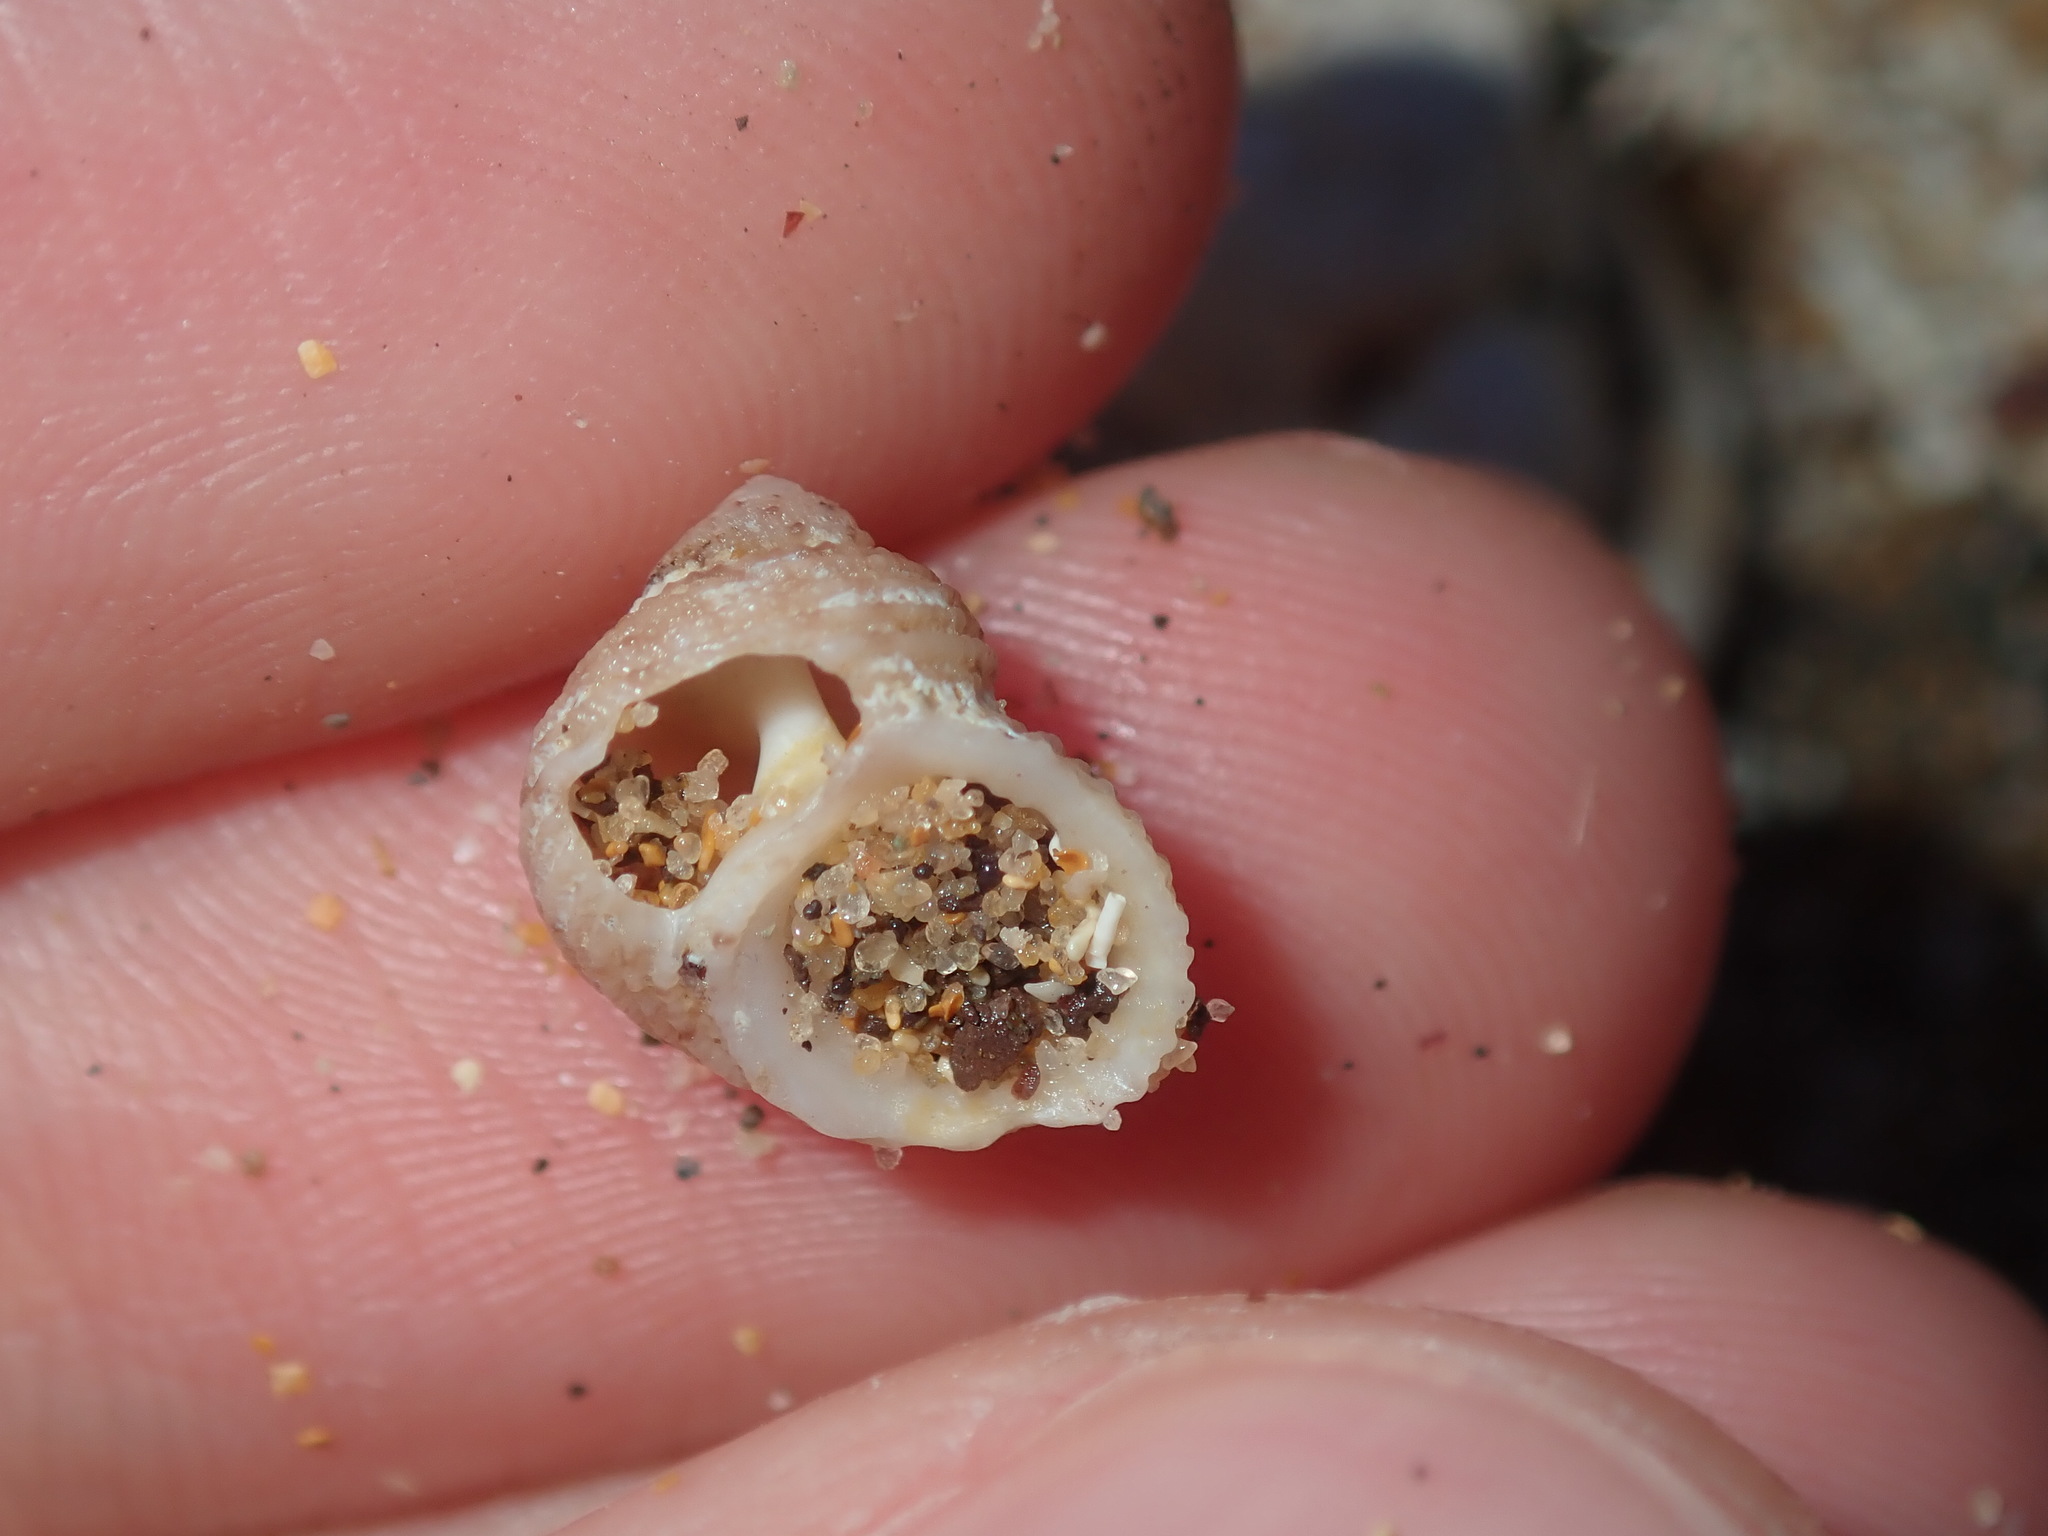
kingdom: Animalia
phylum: Mollusca
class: Gastropoda
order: Seguenziida
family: Chilodontaidae
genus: Herpetopoma
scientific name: Herpetopoma aspersum
